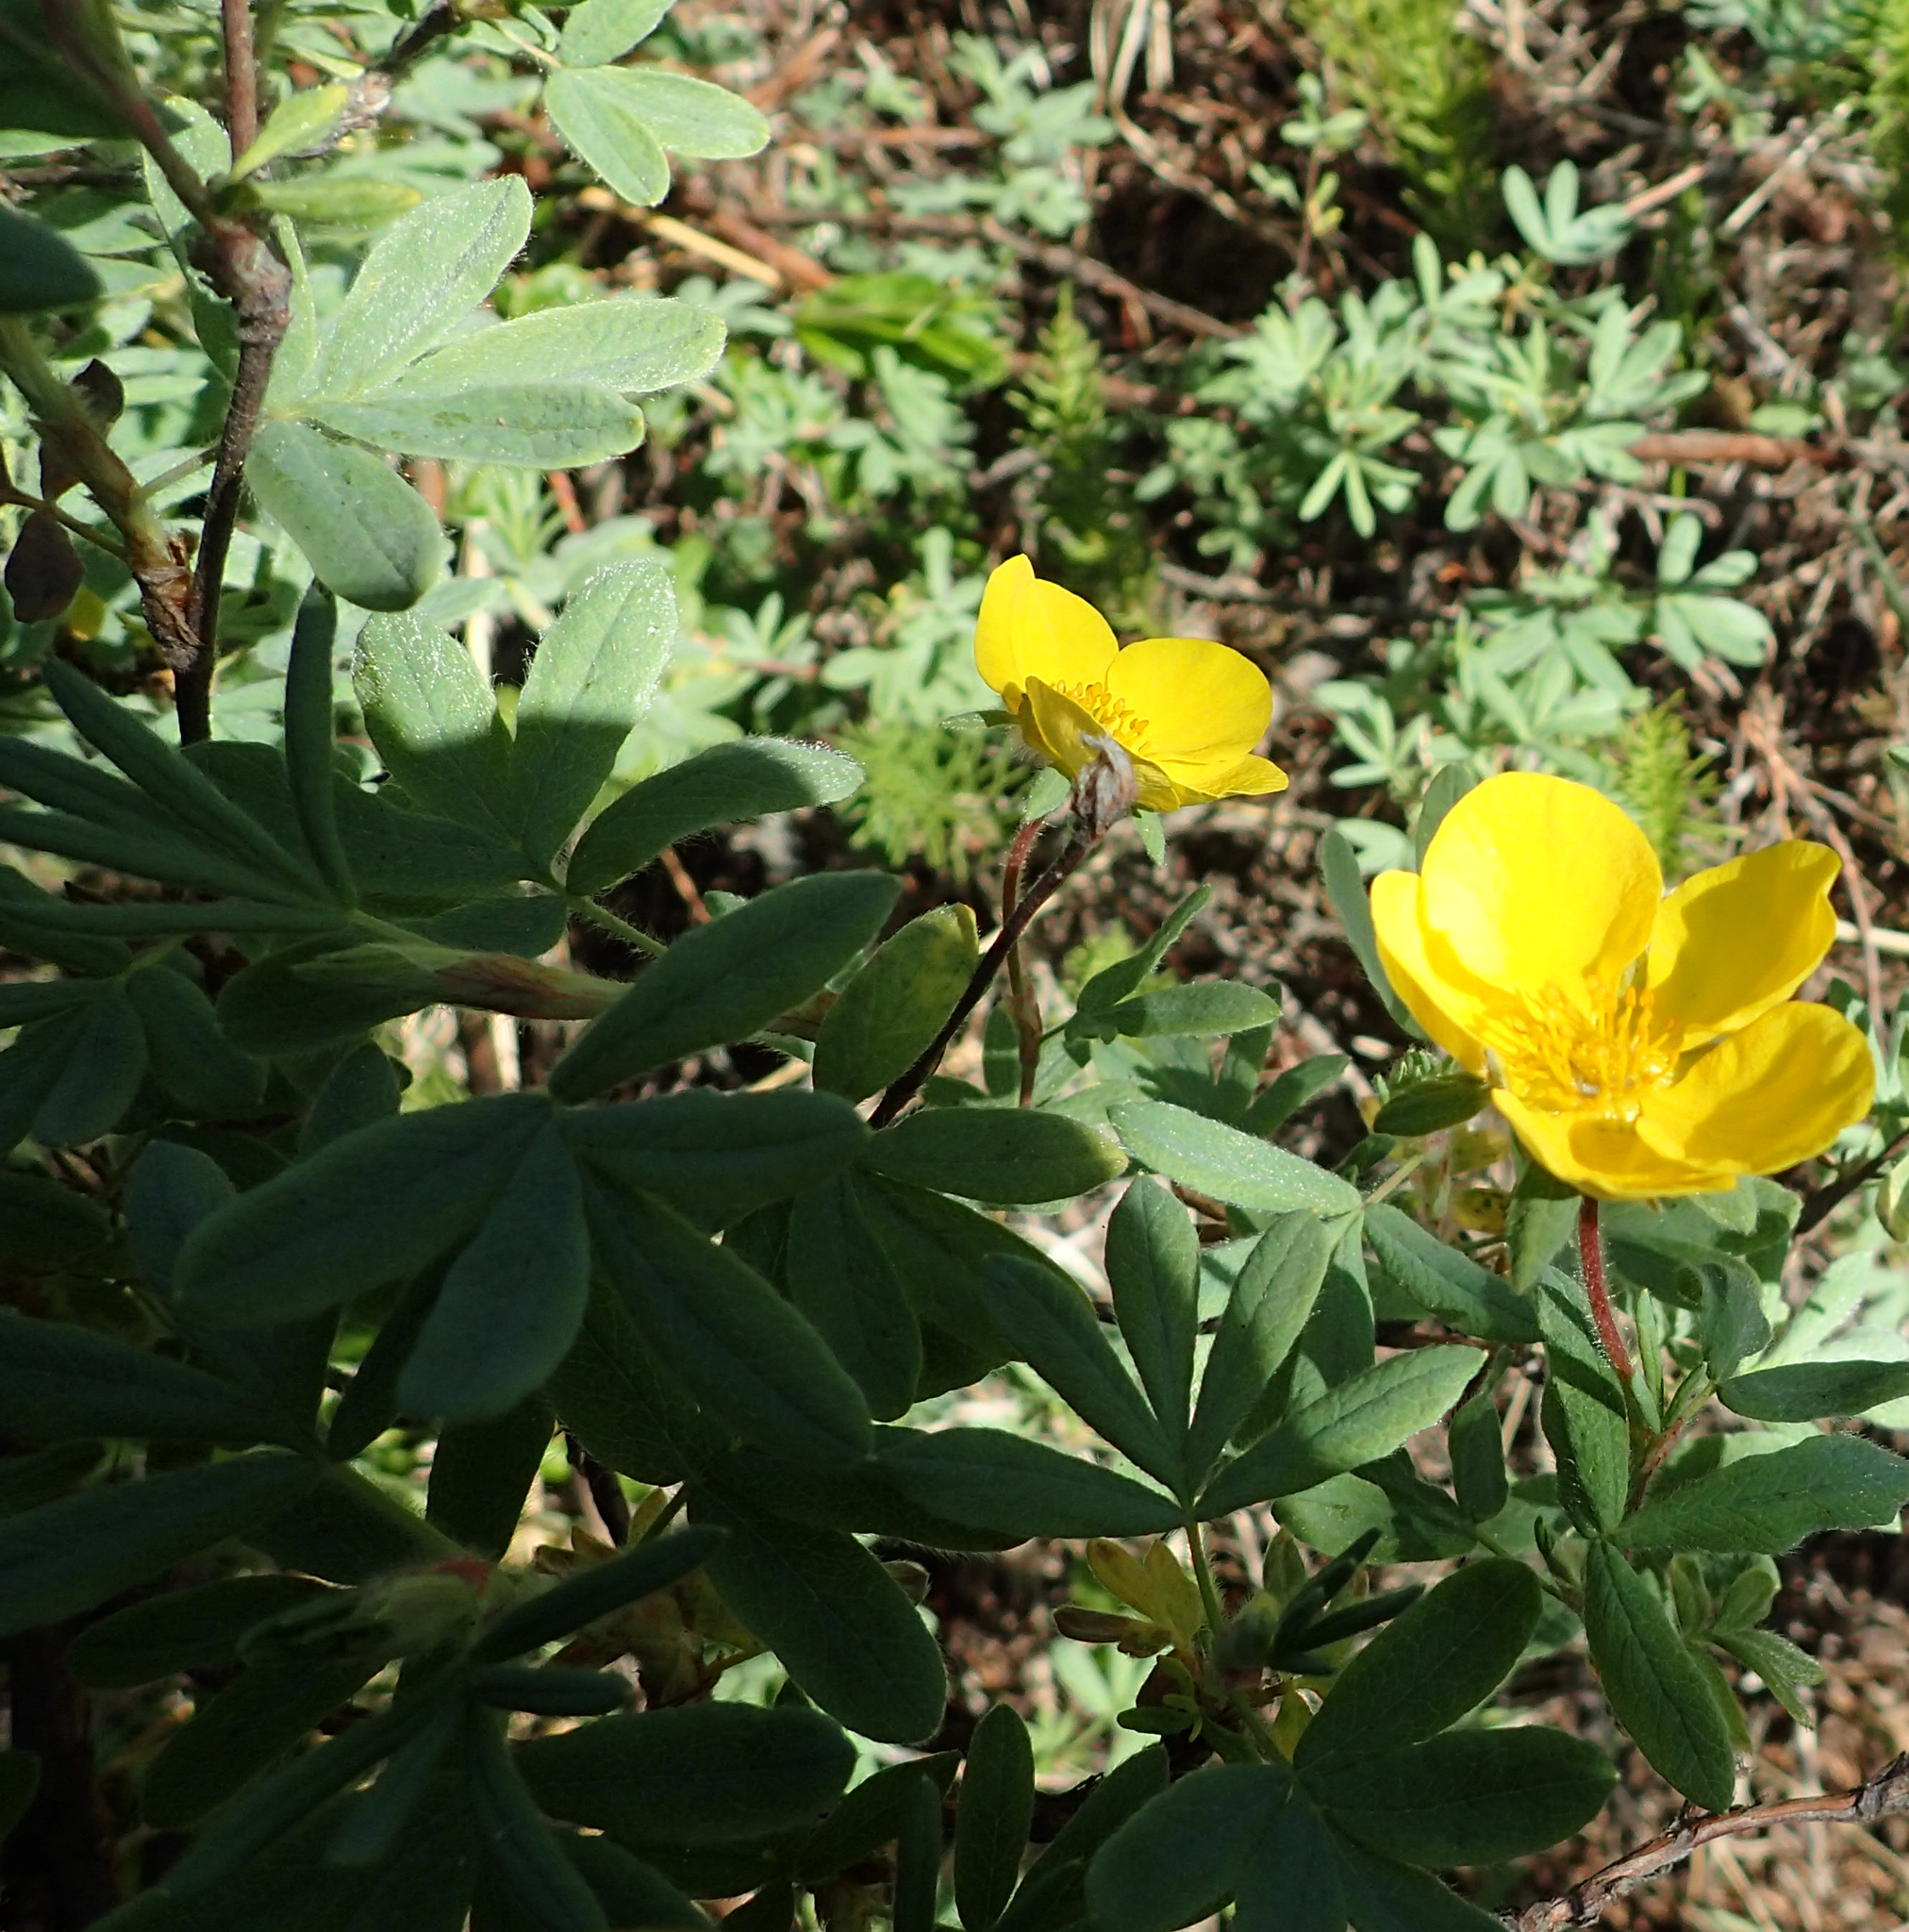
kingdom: Plantae
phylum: Tracheophyta
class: Magnoliopsida
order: Rosales
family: Rosaceae
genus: Dasiphora
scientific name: Dasiphora fruticosa
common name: Shrubby cinquefoil
